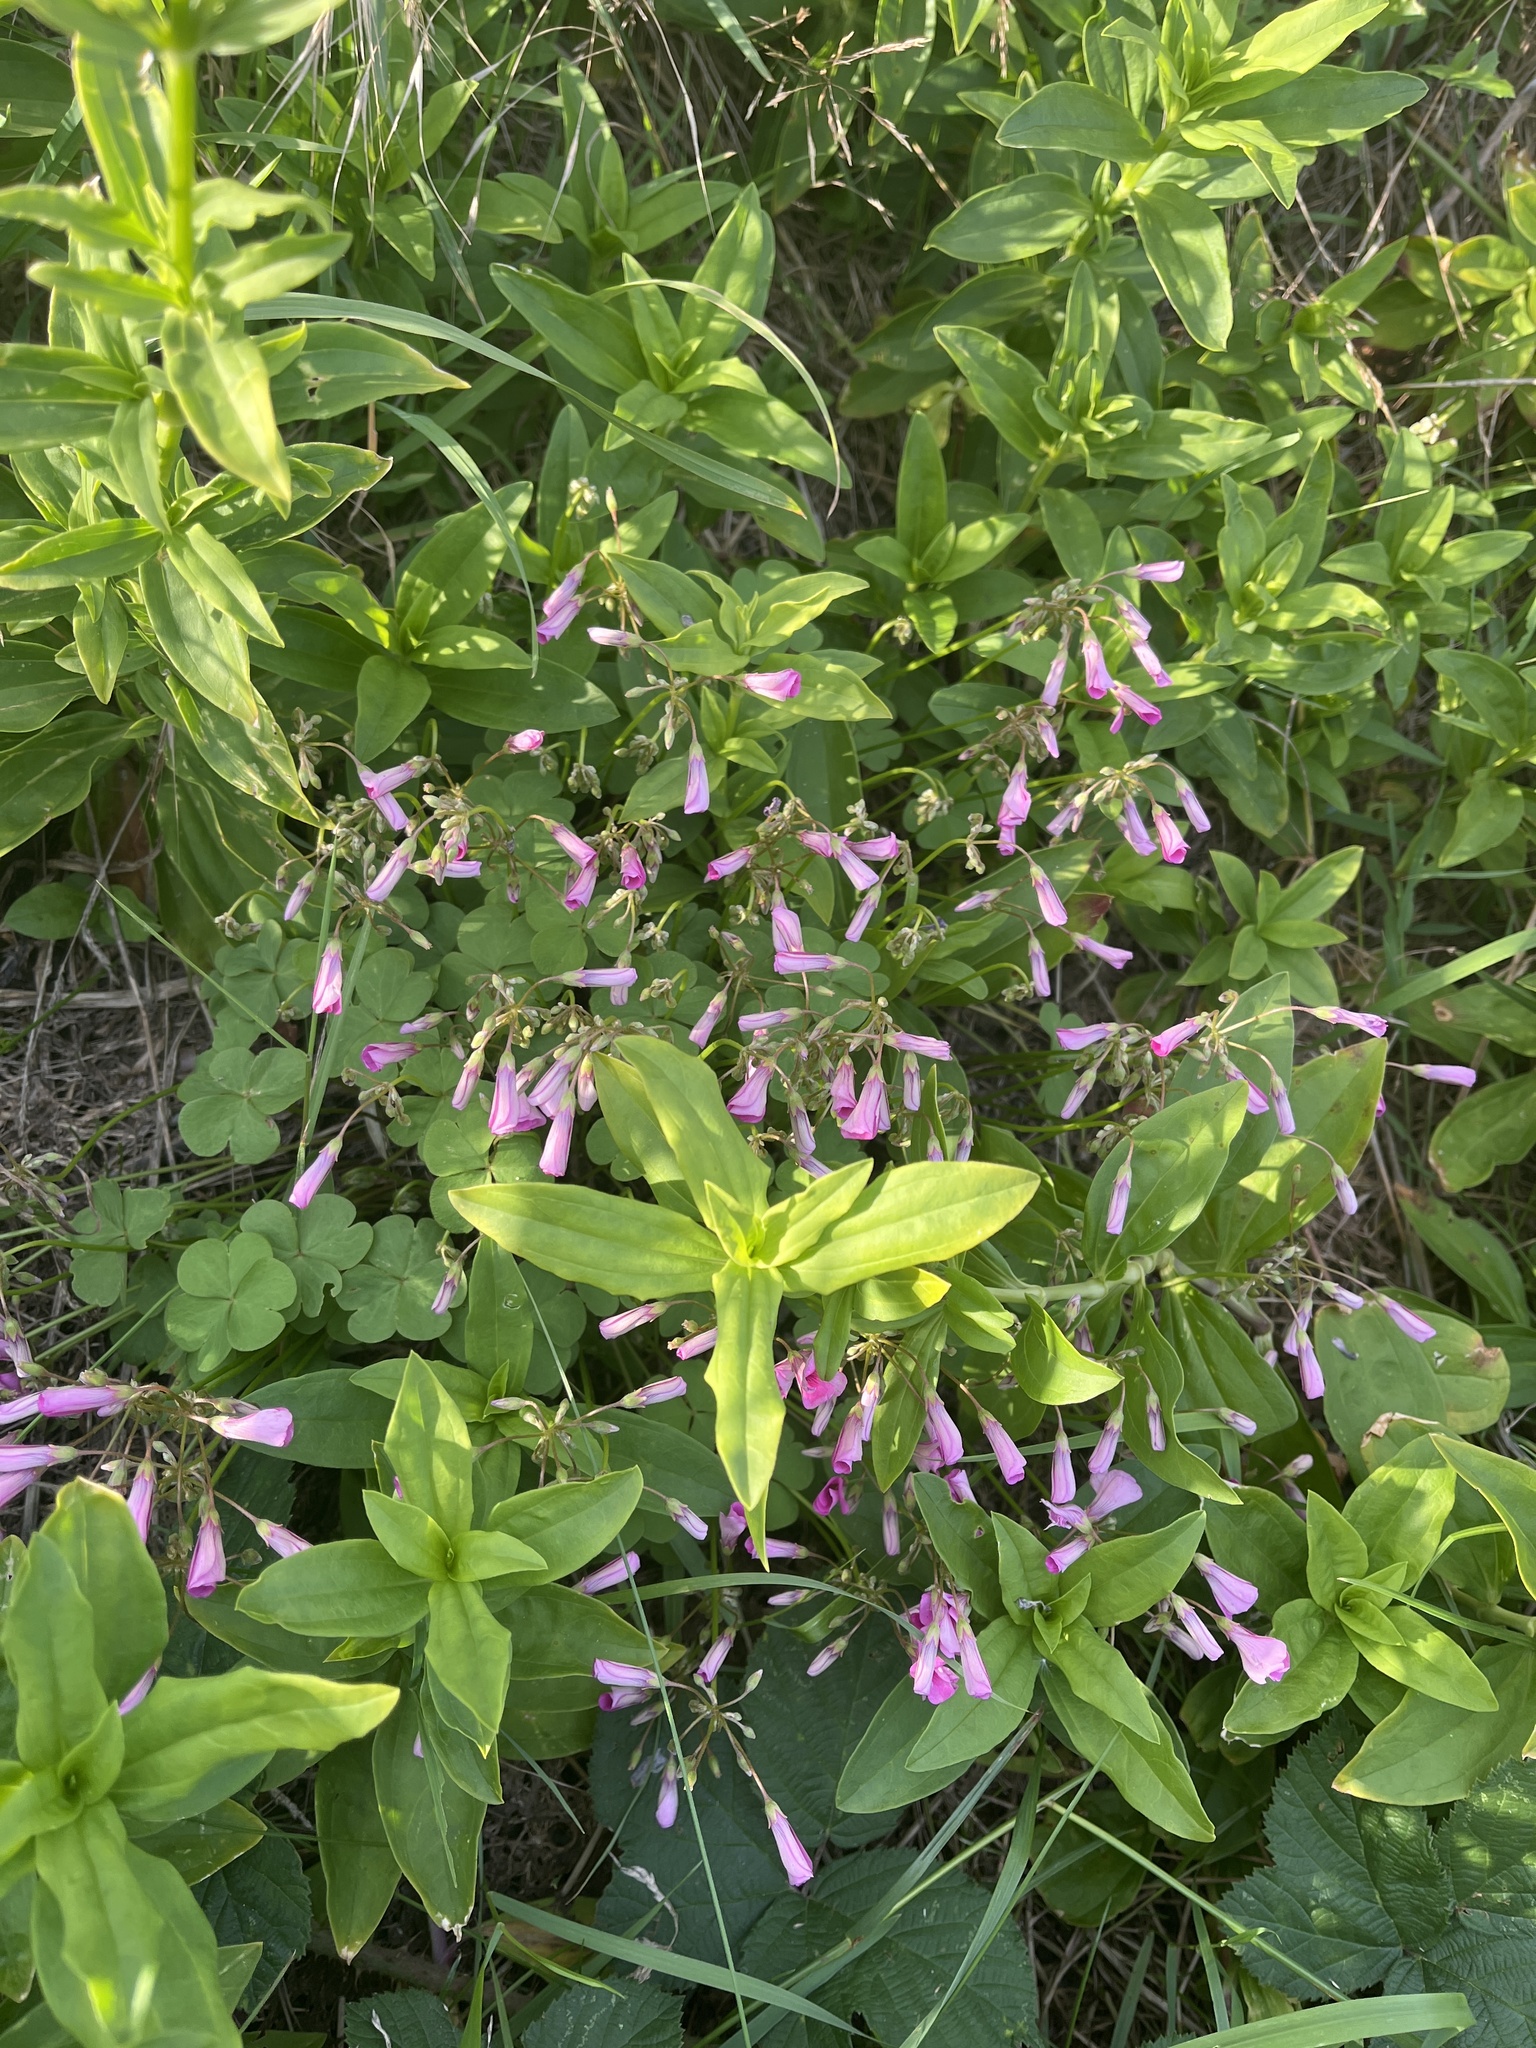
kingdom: Plantae
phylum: Tracheophyta
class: Magnoliopsida
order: Oxalidales
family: Oxalidaceae
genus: Oxalis
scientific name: Oxalis articulata
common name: Pink-sorrel
